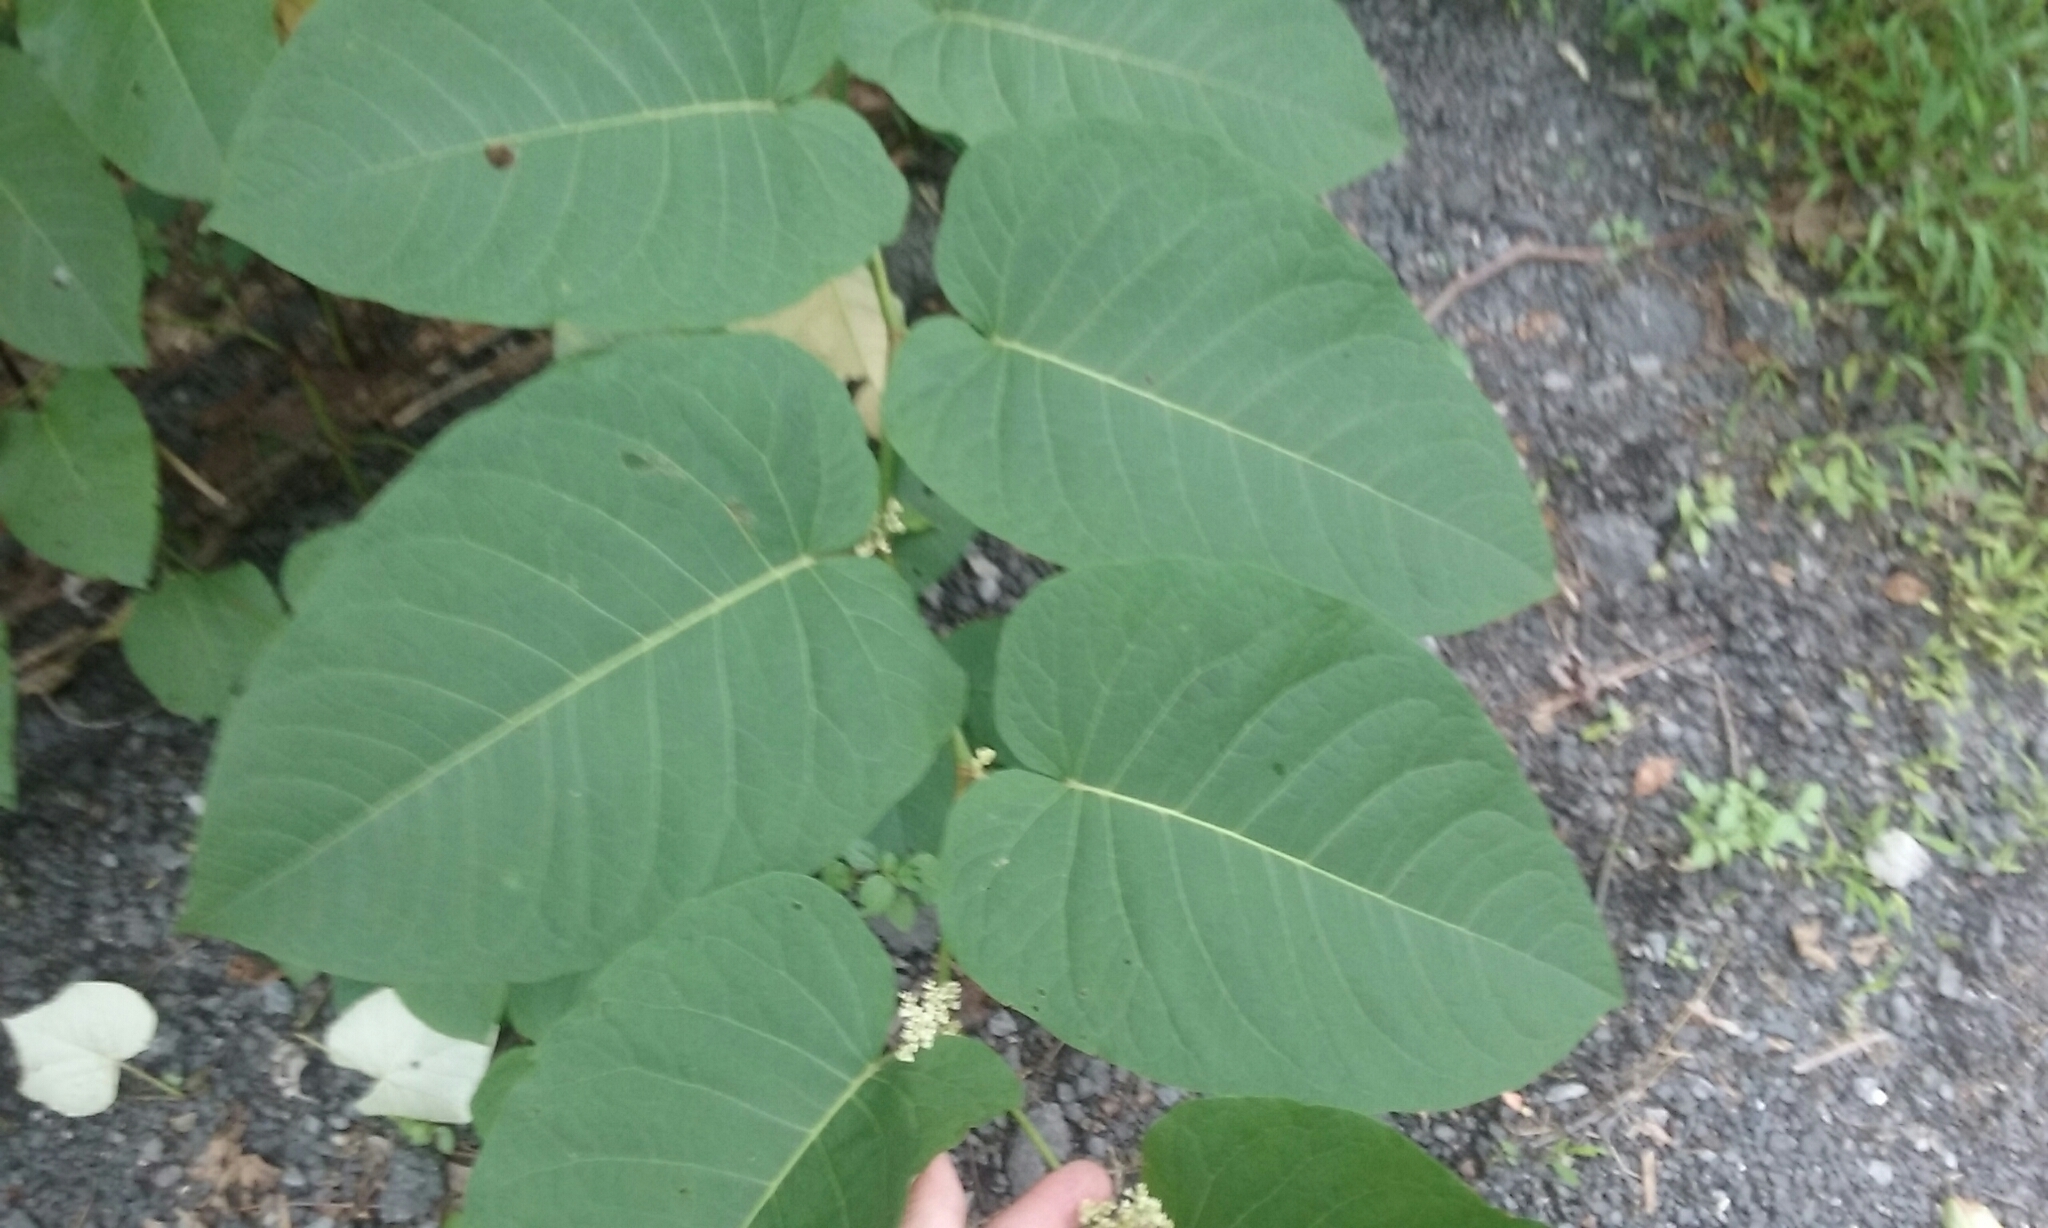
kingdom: Plantae
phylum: Tracheophyta
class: Magnoliopsida
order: Caryophyllales
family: Polygonaceae
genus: Reynoutria
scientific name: Reynoutria japonica
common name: Japanese knotweed
